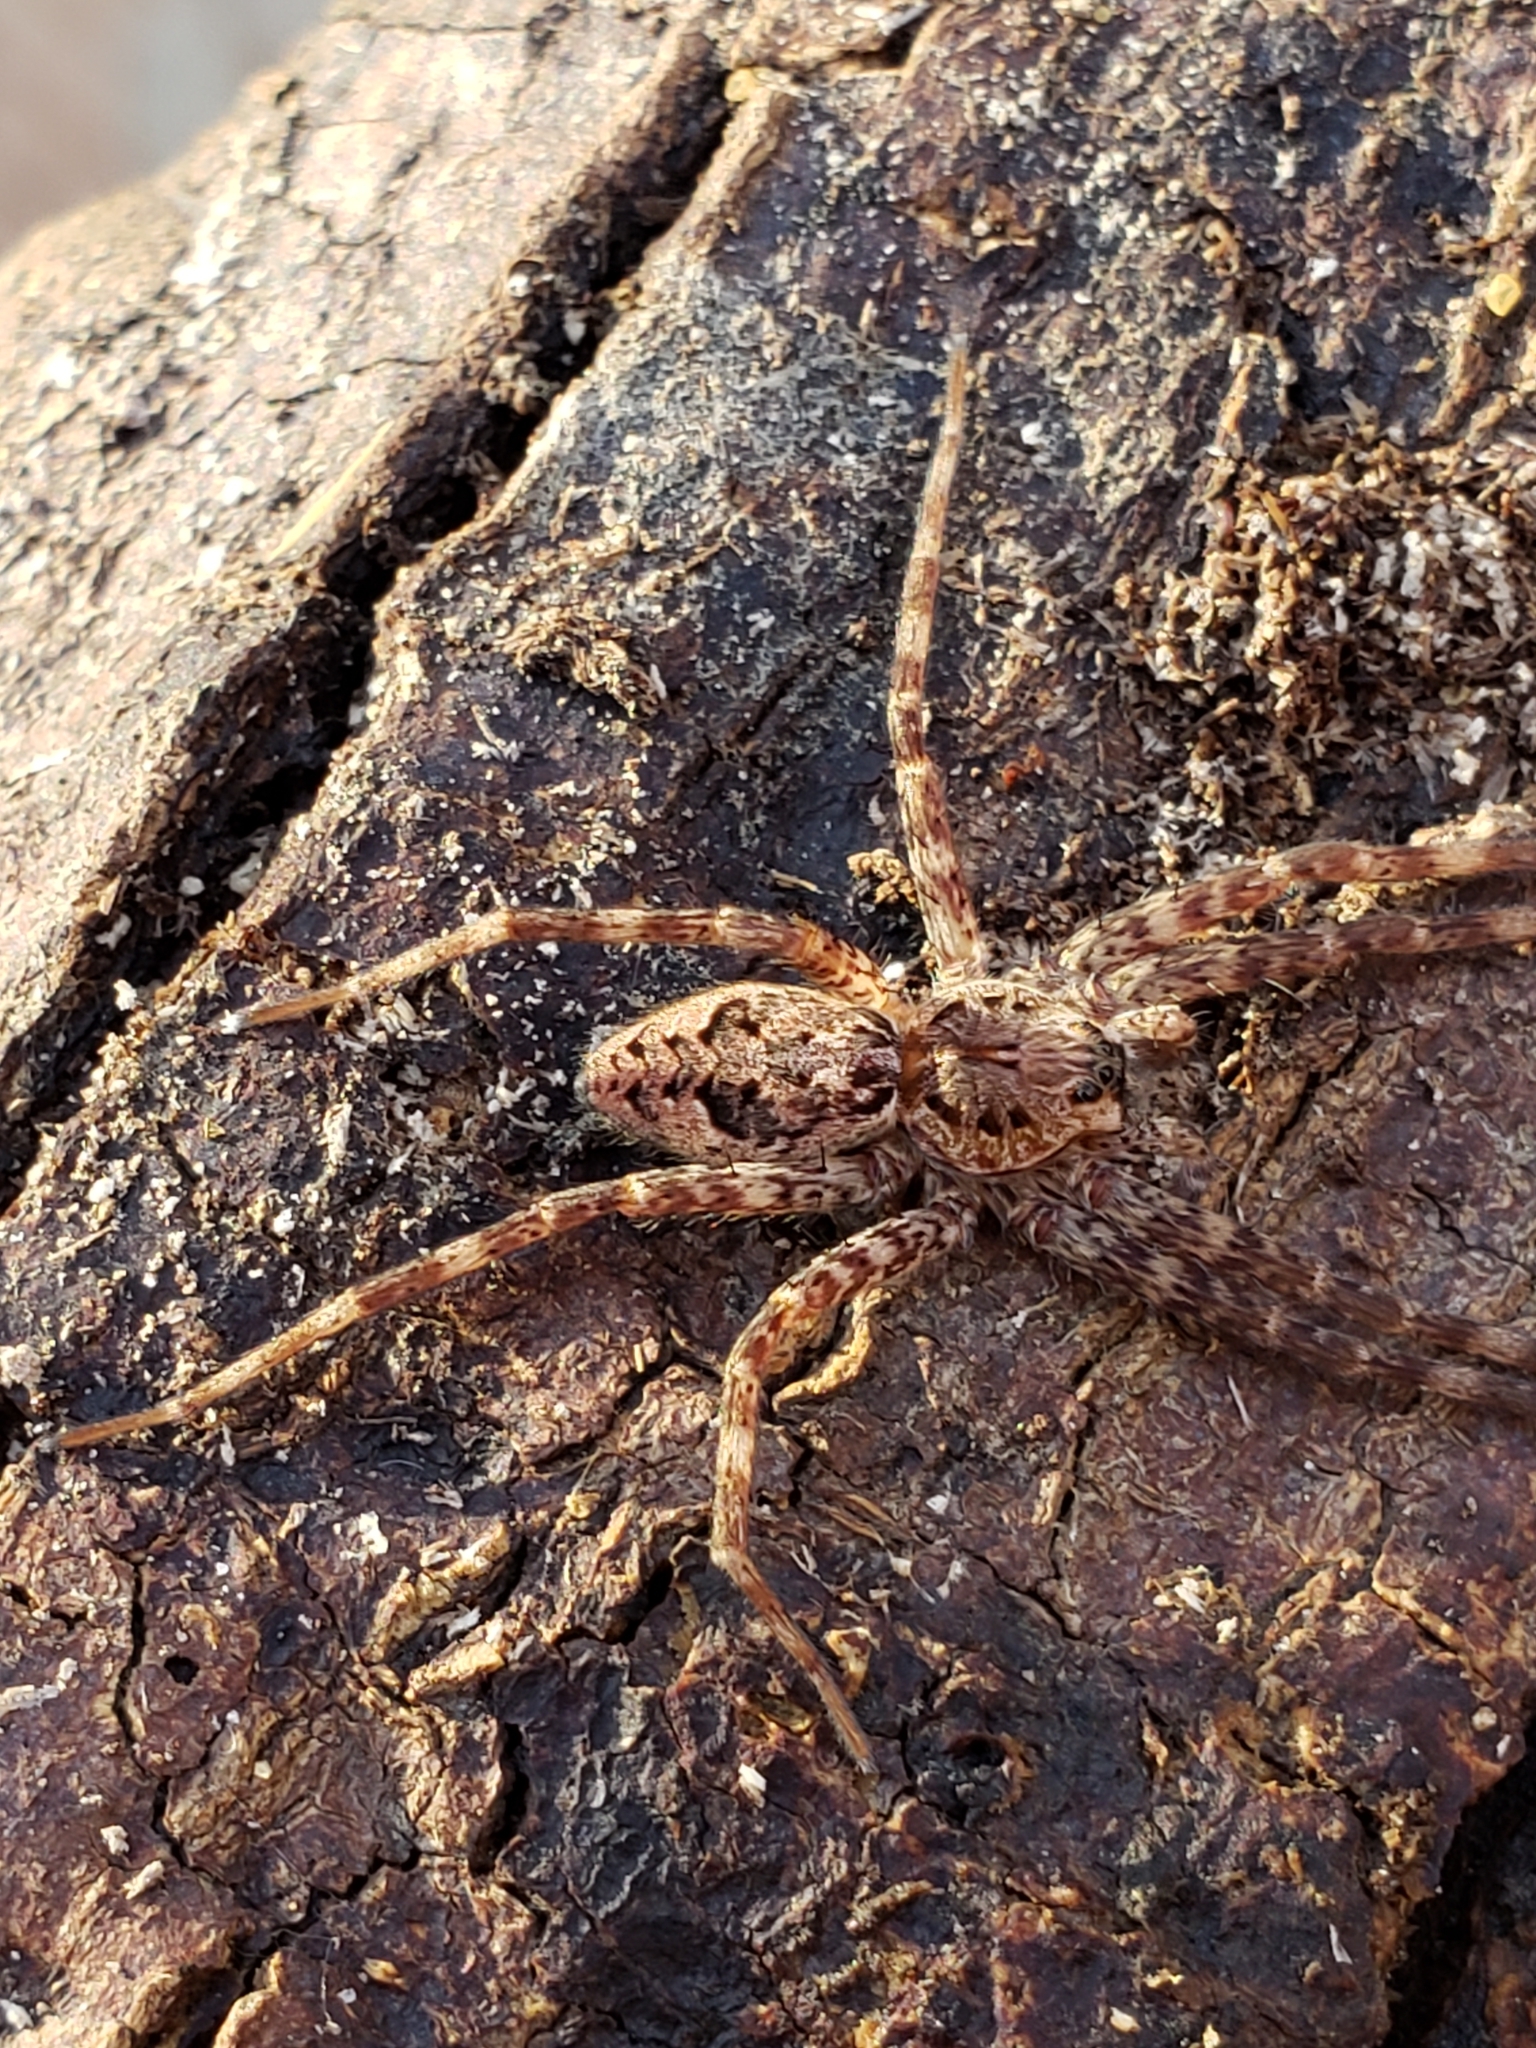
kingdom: Animalia
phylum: Arthropoda
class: Arachnida
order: Araneae
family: Pisauridae
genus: Dolomedes
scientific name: Dolomedes tenebrosus
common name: Dark fishing spider
